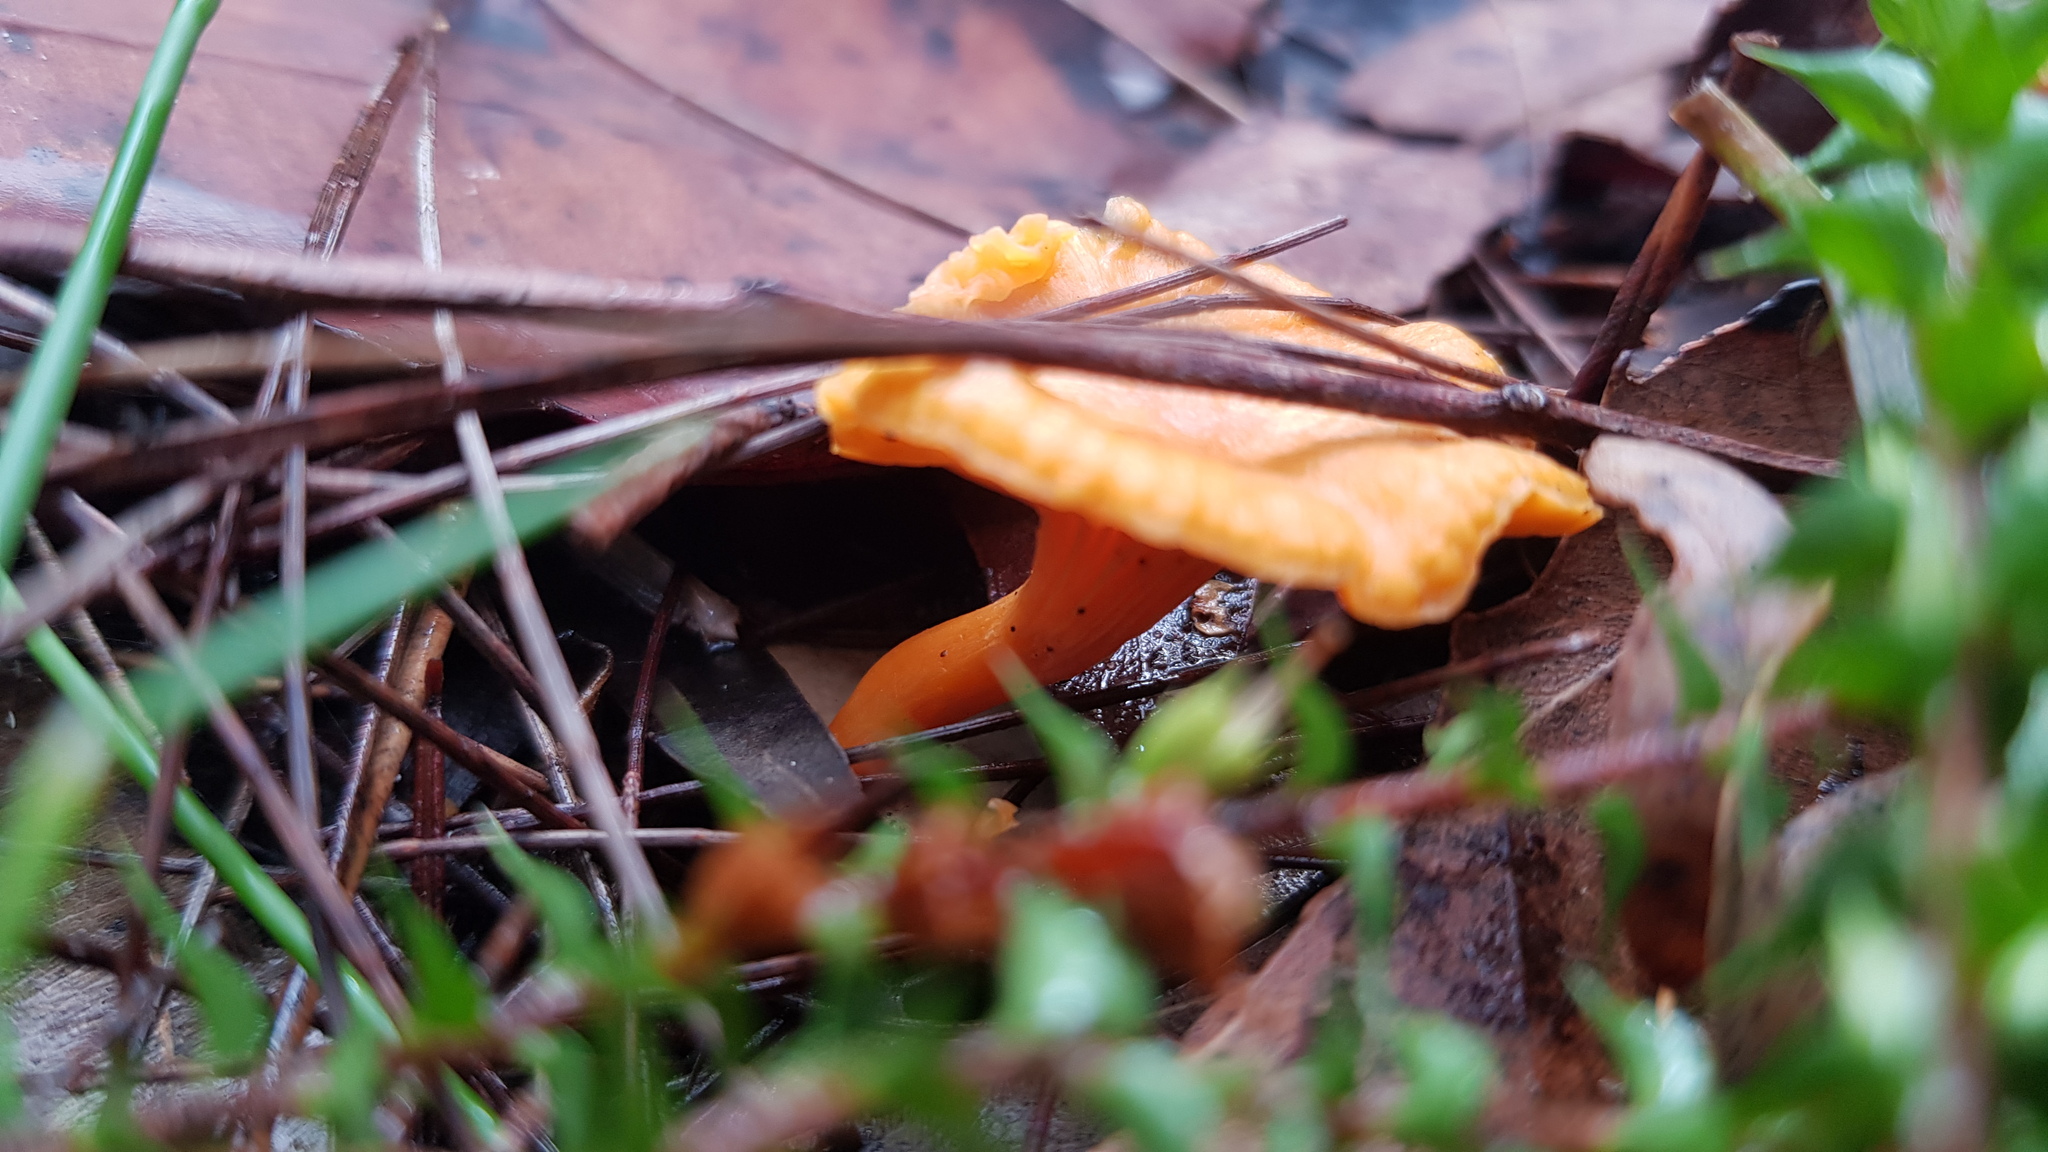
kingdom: Fungi
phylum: Basidiomycota
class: Agaricomycetes
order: Cantharellales
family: Hydnaceae
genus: Cantharellus
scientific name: Cantharellus
